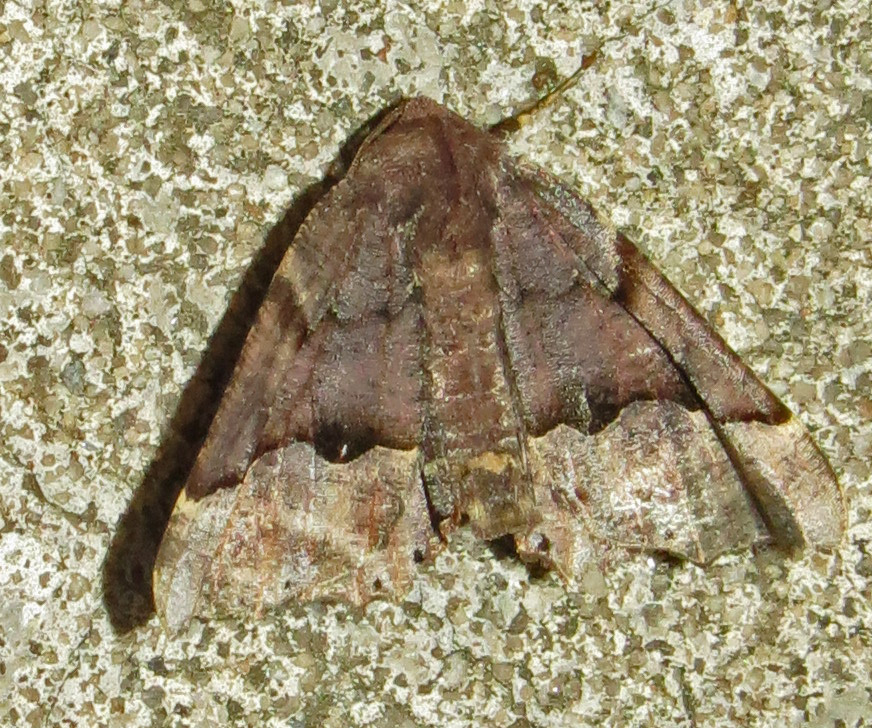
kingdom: Animalia
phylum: Arthropoda
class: Insecta
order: Lepidoptera
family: Geometridae
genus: Pero
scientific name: Pero ancetaria
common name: Hübner's pero
